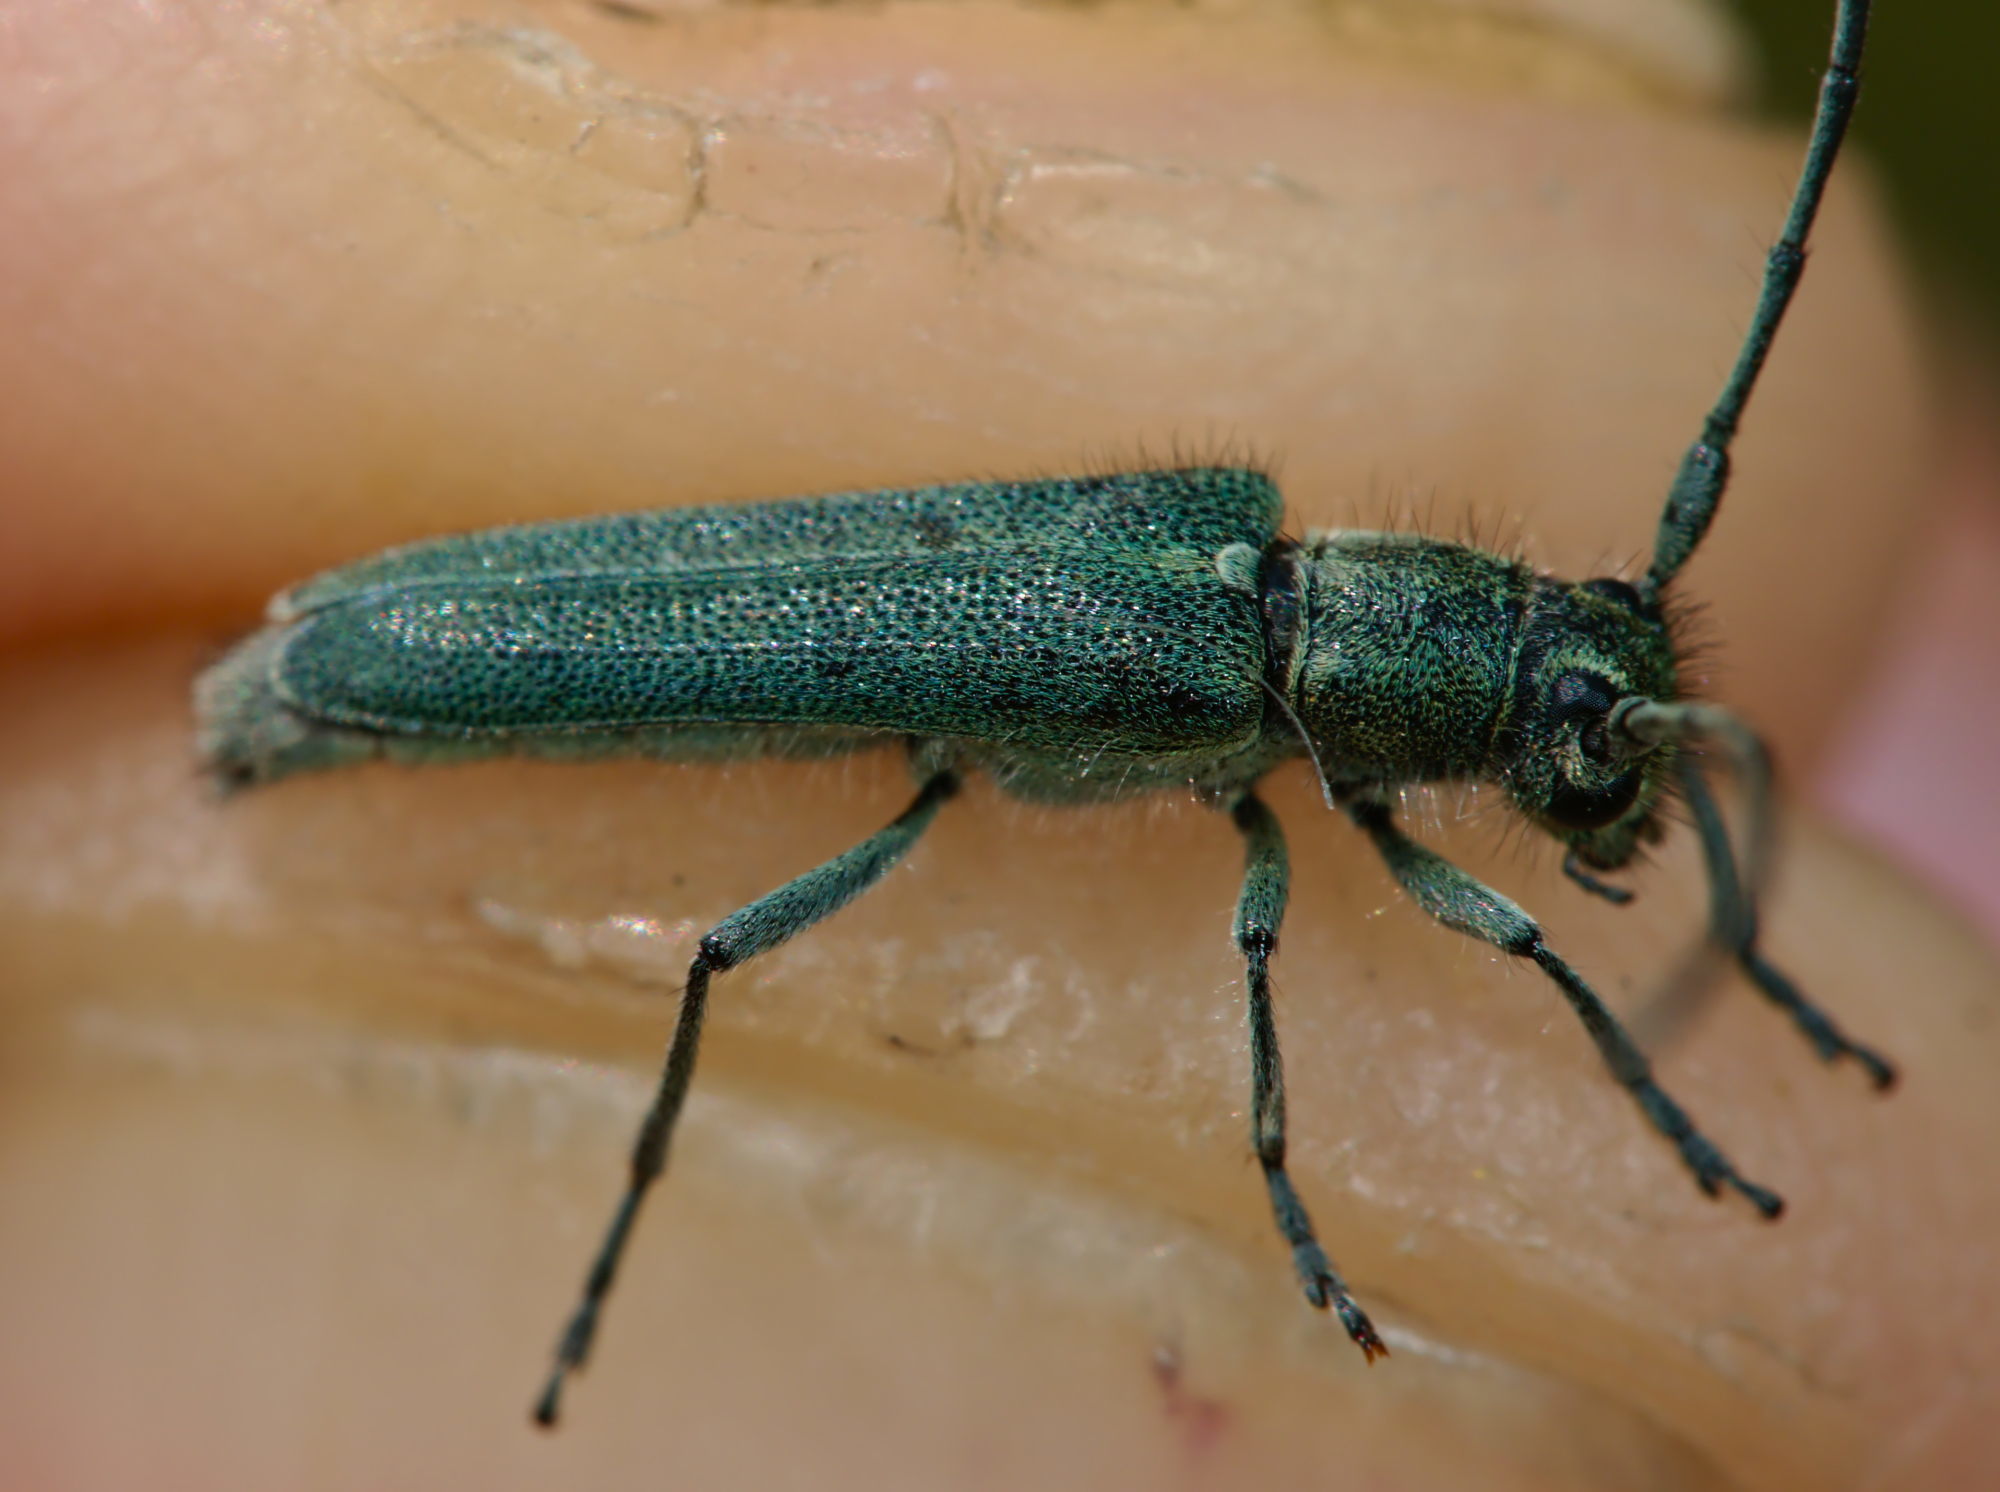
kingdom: Animalia
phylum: Arthropoda
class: Insecta
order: Coleoptera
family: Cerambycidae
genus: Phytoecia
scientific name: Phytoecia coerulescens
